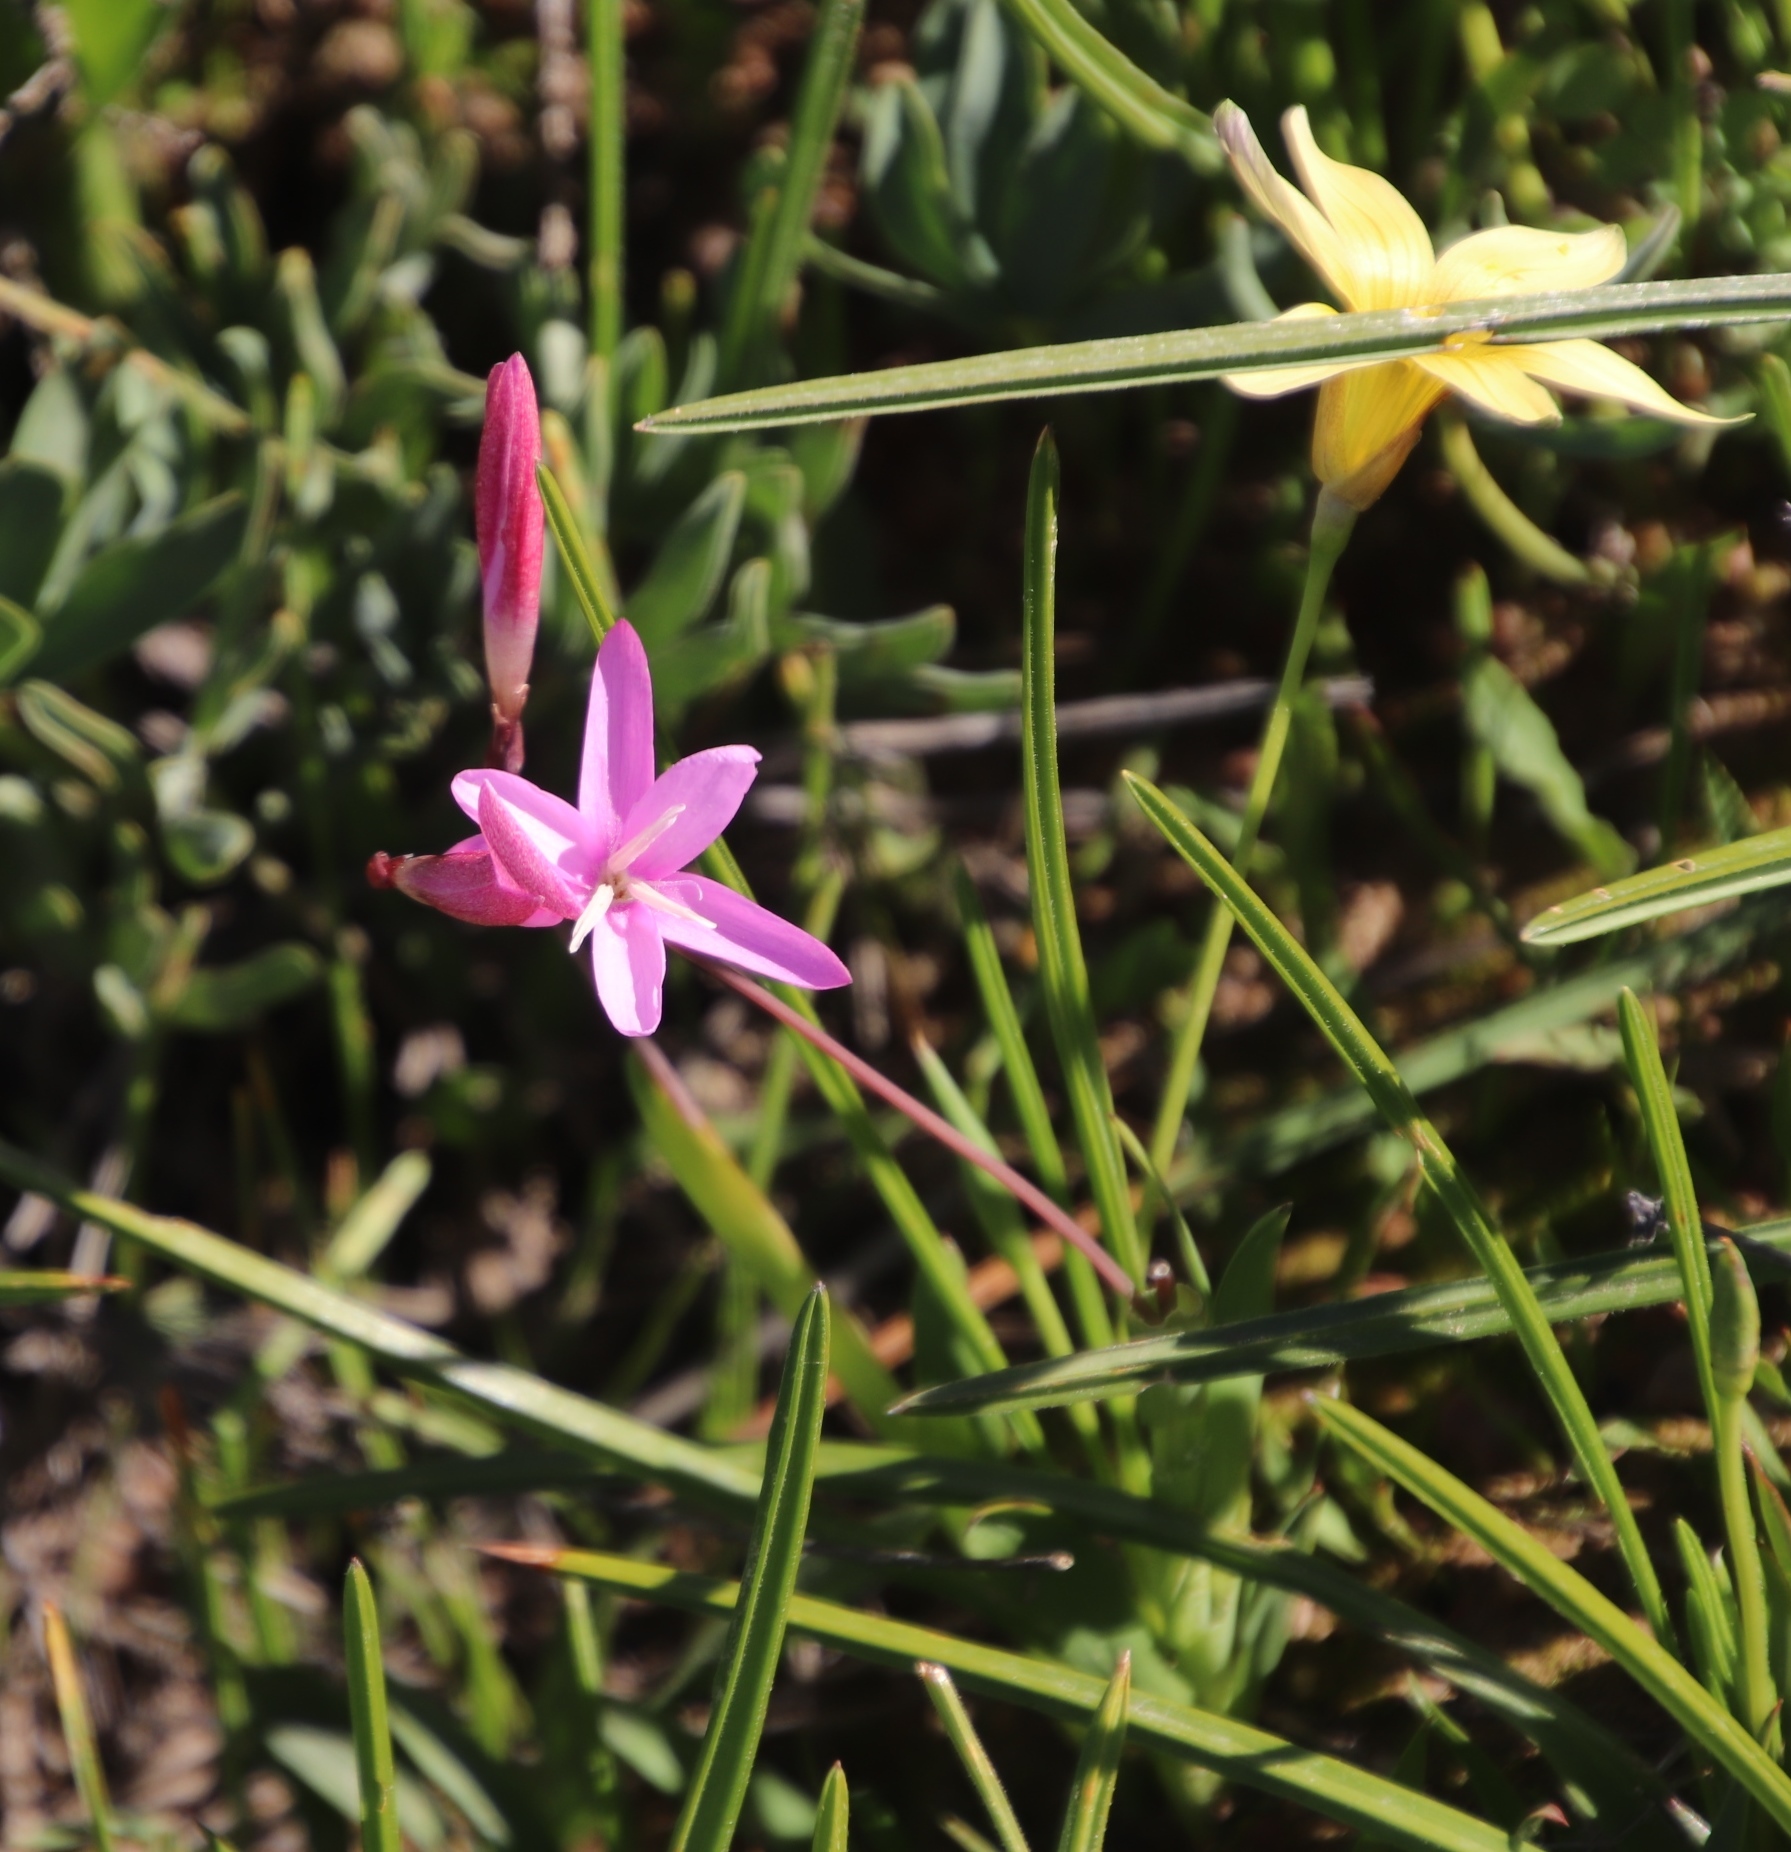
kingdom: Plantae
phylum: Tracheophyta
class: Liliopsida
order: Asparagales
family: Iridaceae
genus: Hesperantha
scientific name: Hesperantha pauciflora
